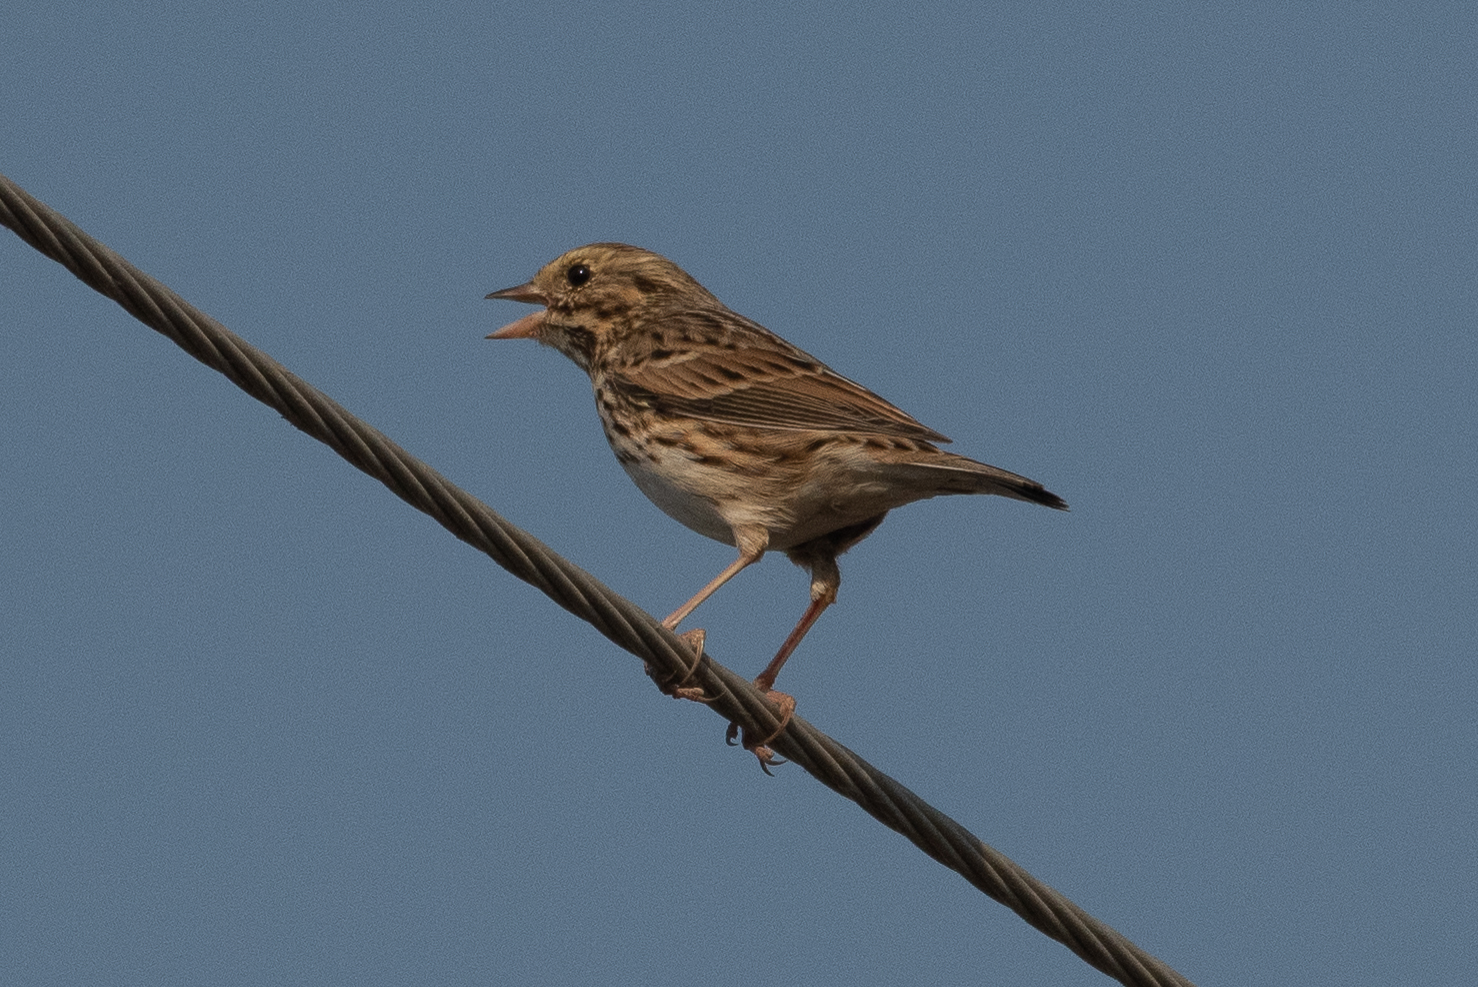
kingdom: Animalia
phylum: Chordata
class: Aves
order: Passeriformes
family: Passerellidae
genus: Passerculus
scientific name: Passerculus sandwichensis
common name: Savannah sparrow
